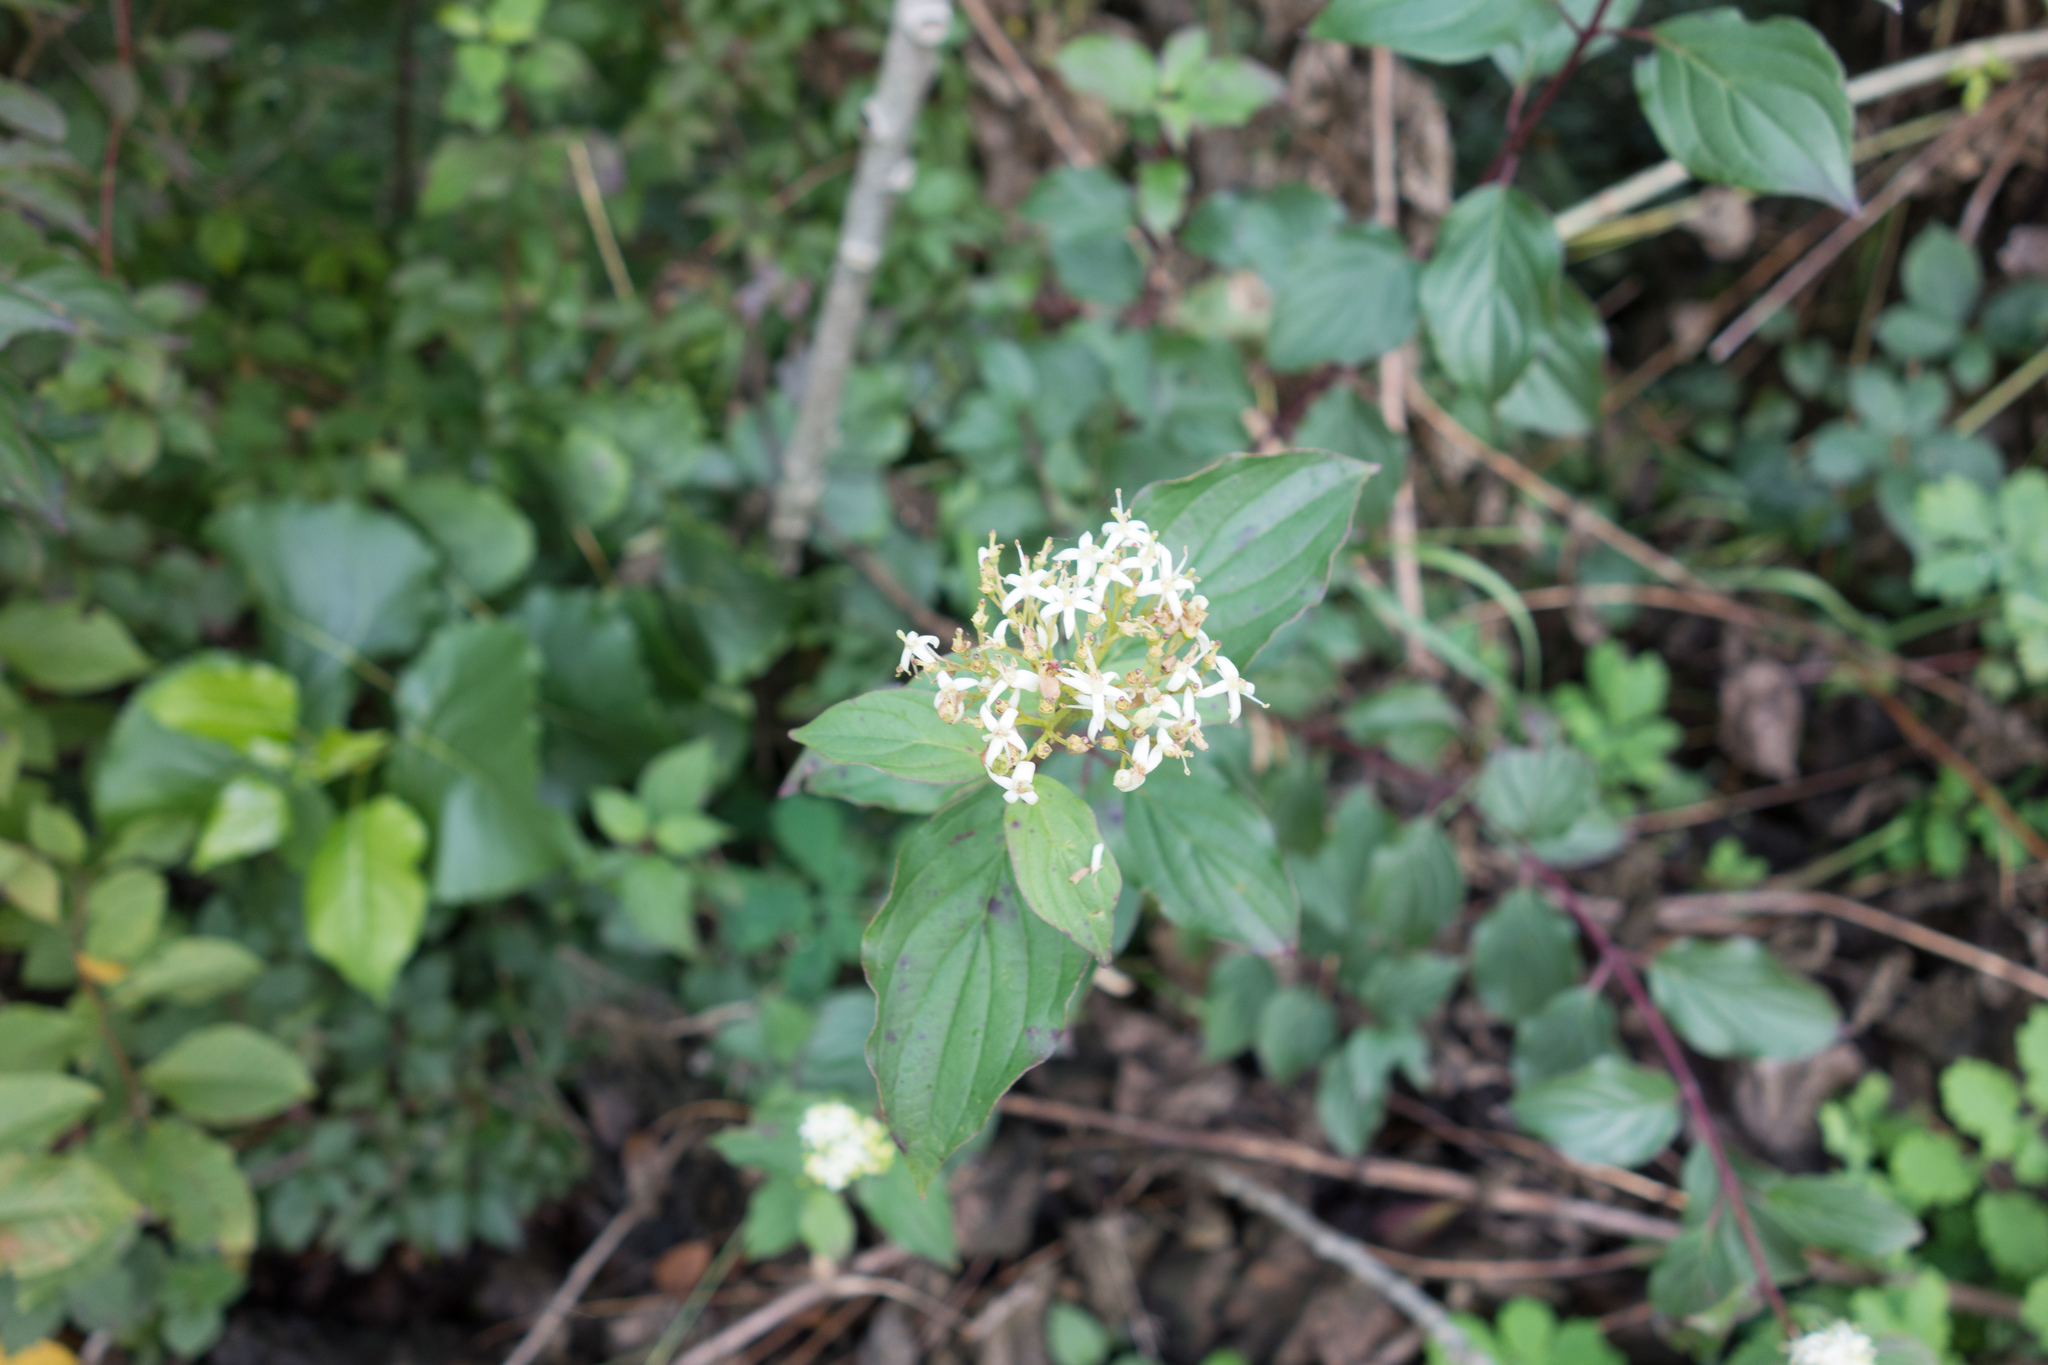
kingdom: Plantae
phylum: Tracheophyta
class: Magnoliopsida
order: Cornales
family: Cornaceae
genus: Cornus
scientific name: Cornus sanguinea
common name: Dogwood
